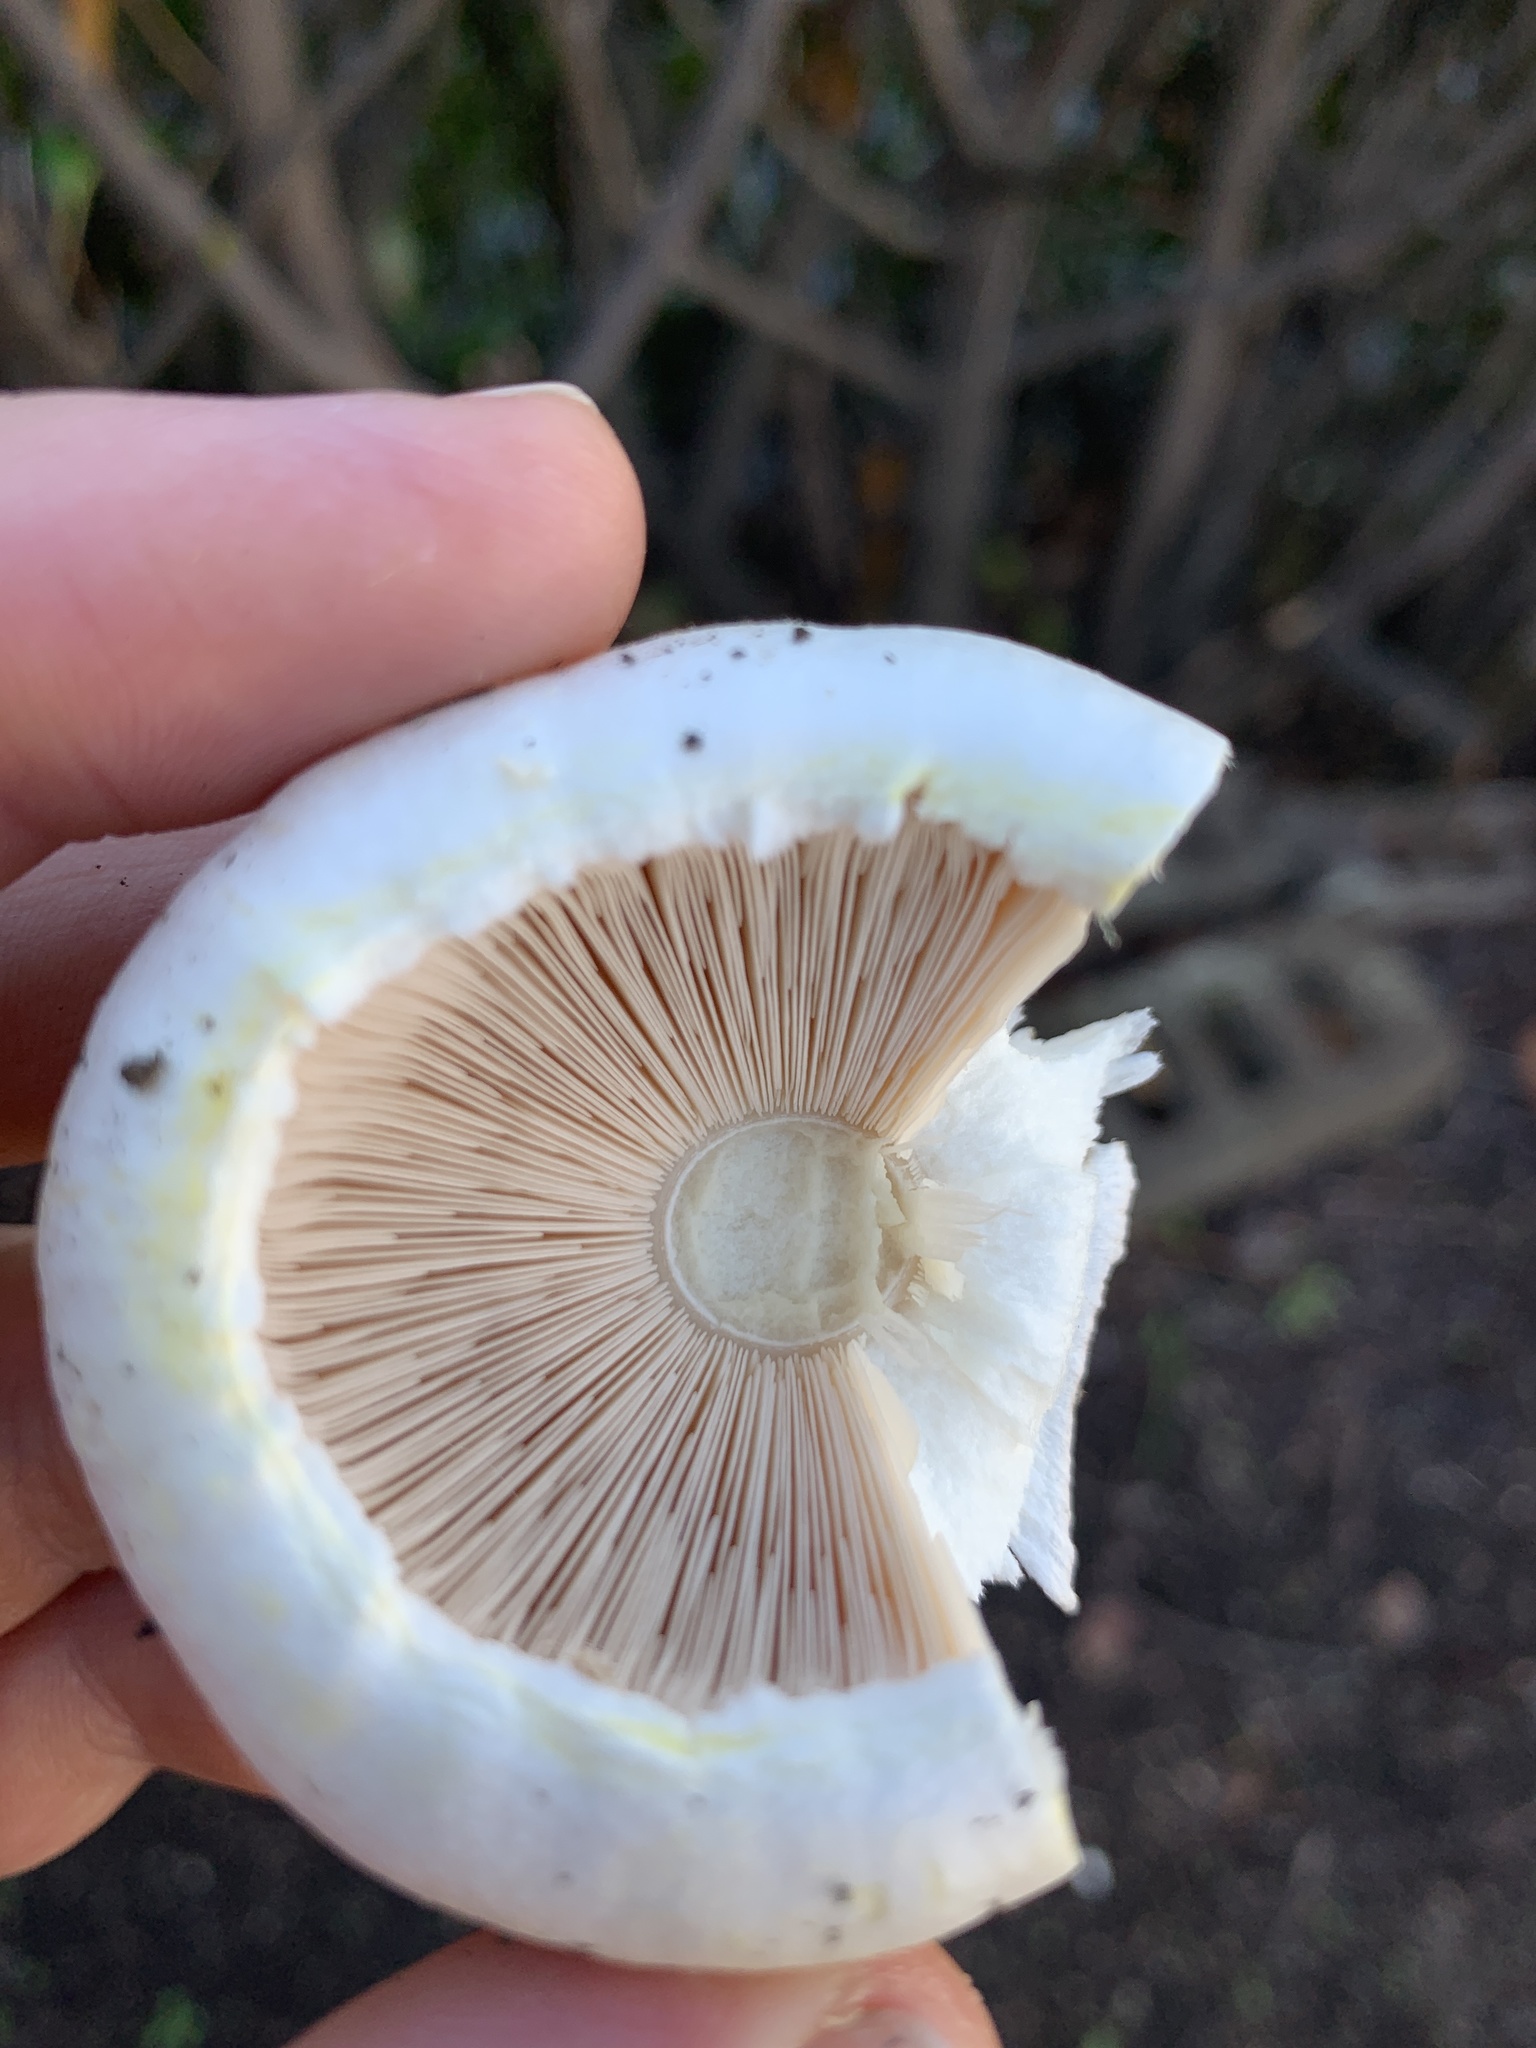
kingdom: Fungi
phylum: Basidiomycota
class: Agaricomycetes
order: Agaricales
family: Agaricaceae
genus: Agaricus
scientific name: Agaricus xanthodermus
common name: Yellow stainer
